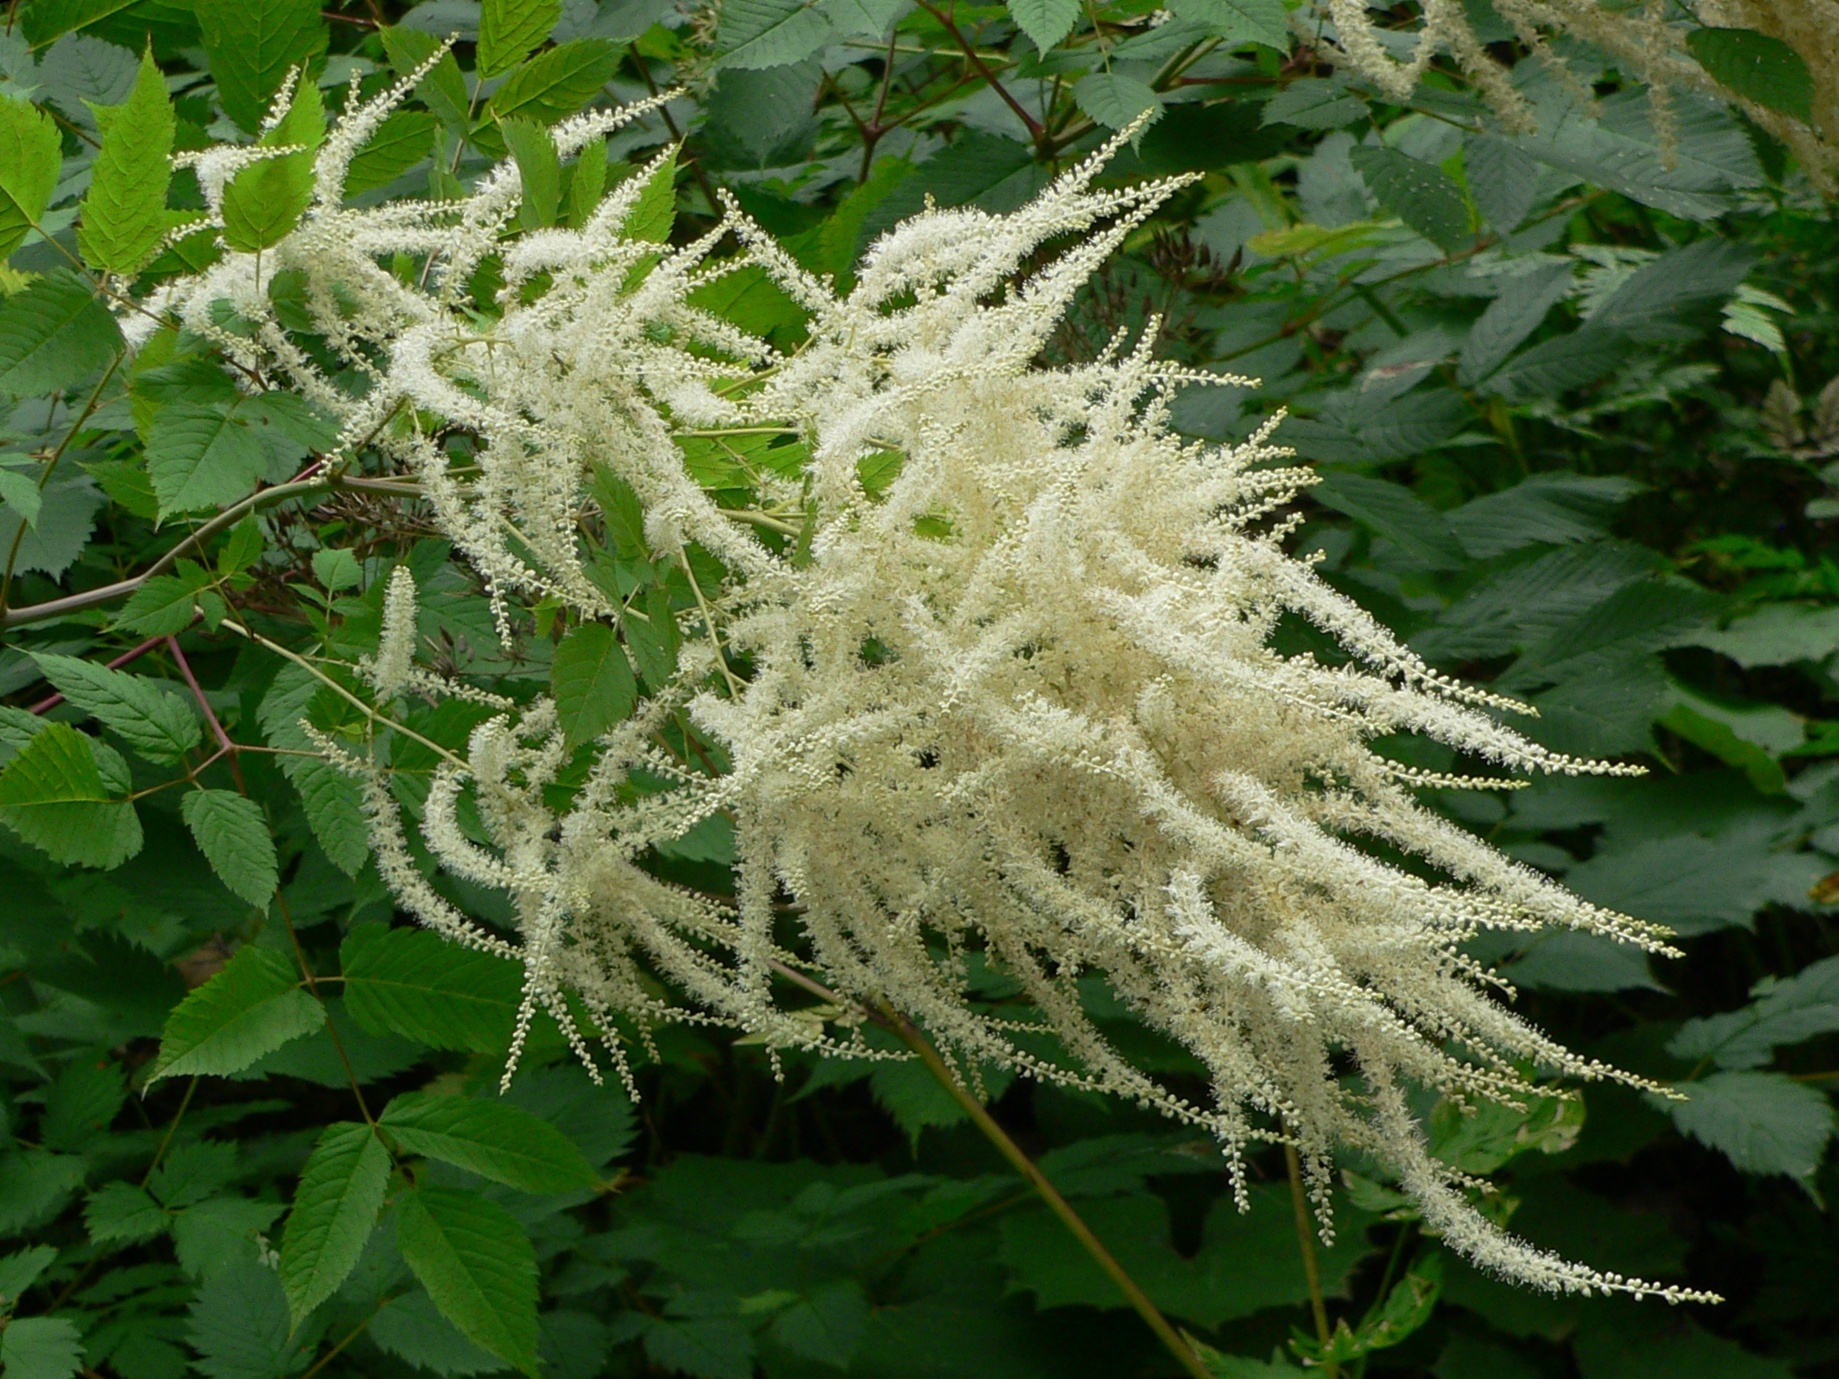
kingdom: Plantae
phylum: Tracheophyta
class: Magnoliopsida
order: Rosales
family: Rosaceae
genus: Aruncus
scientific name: Aruncus dioicus
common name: Buck's-beard
